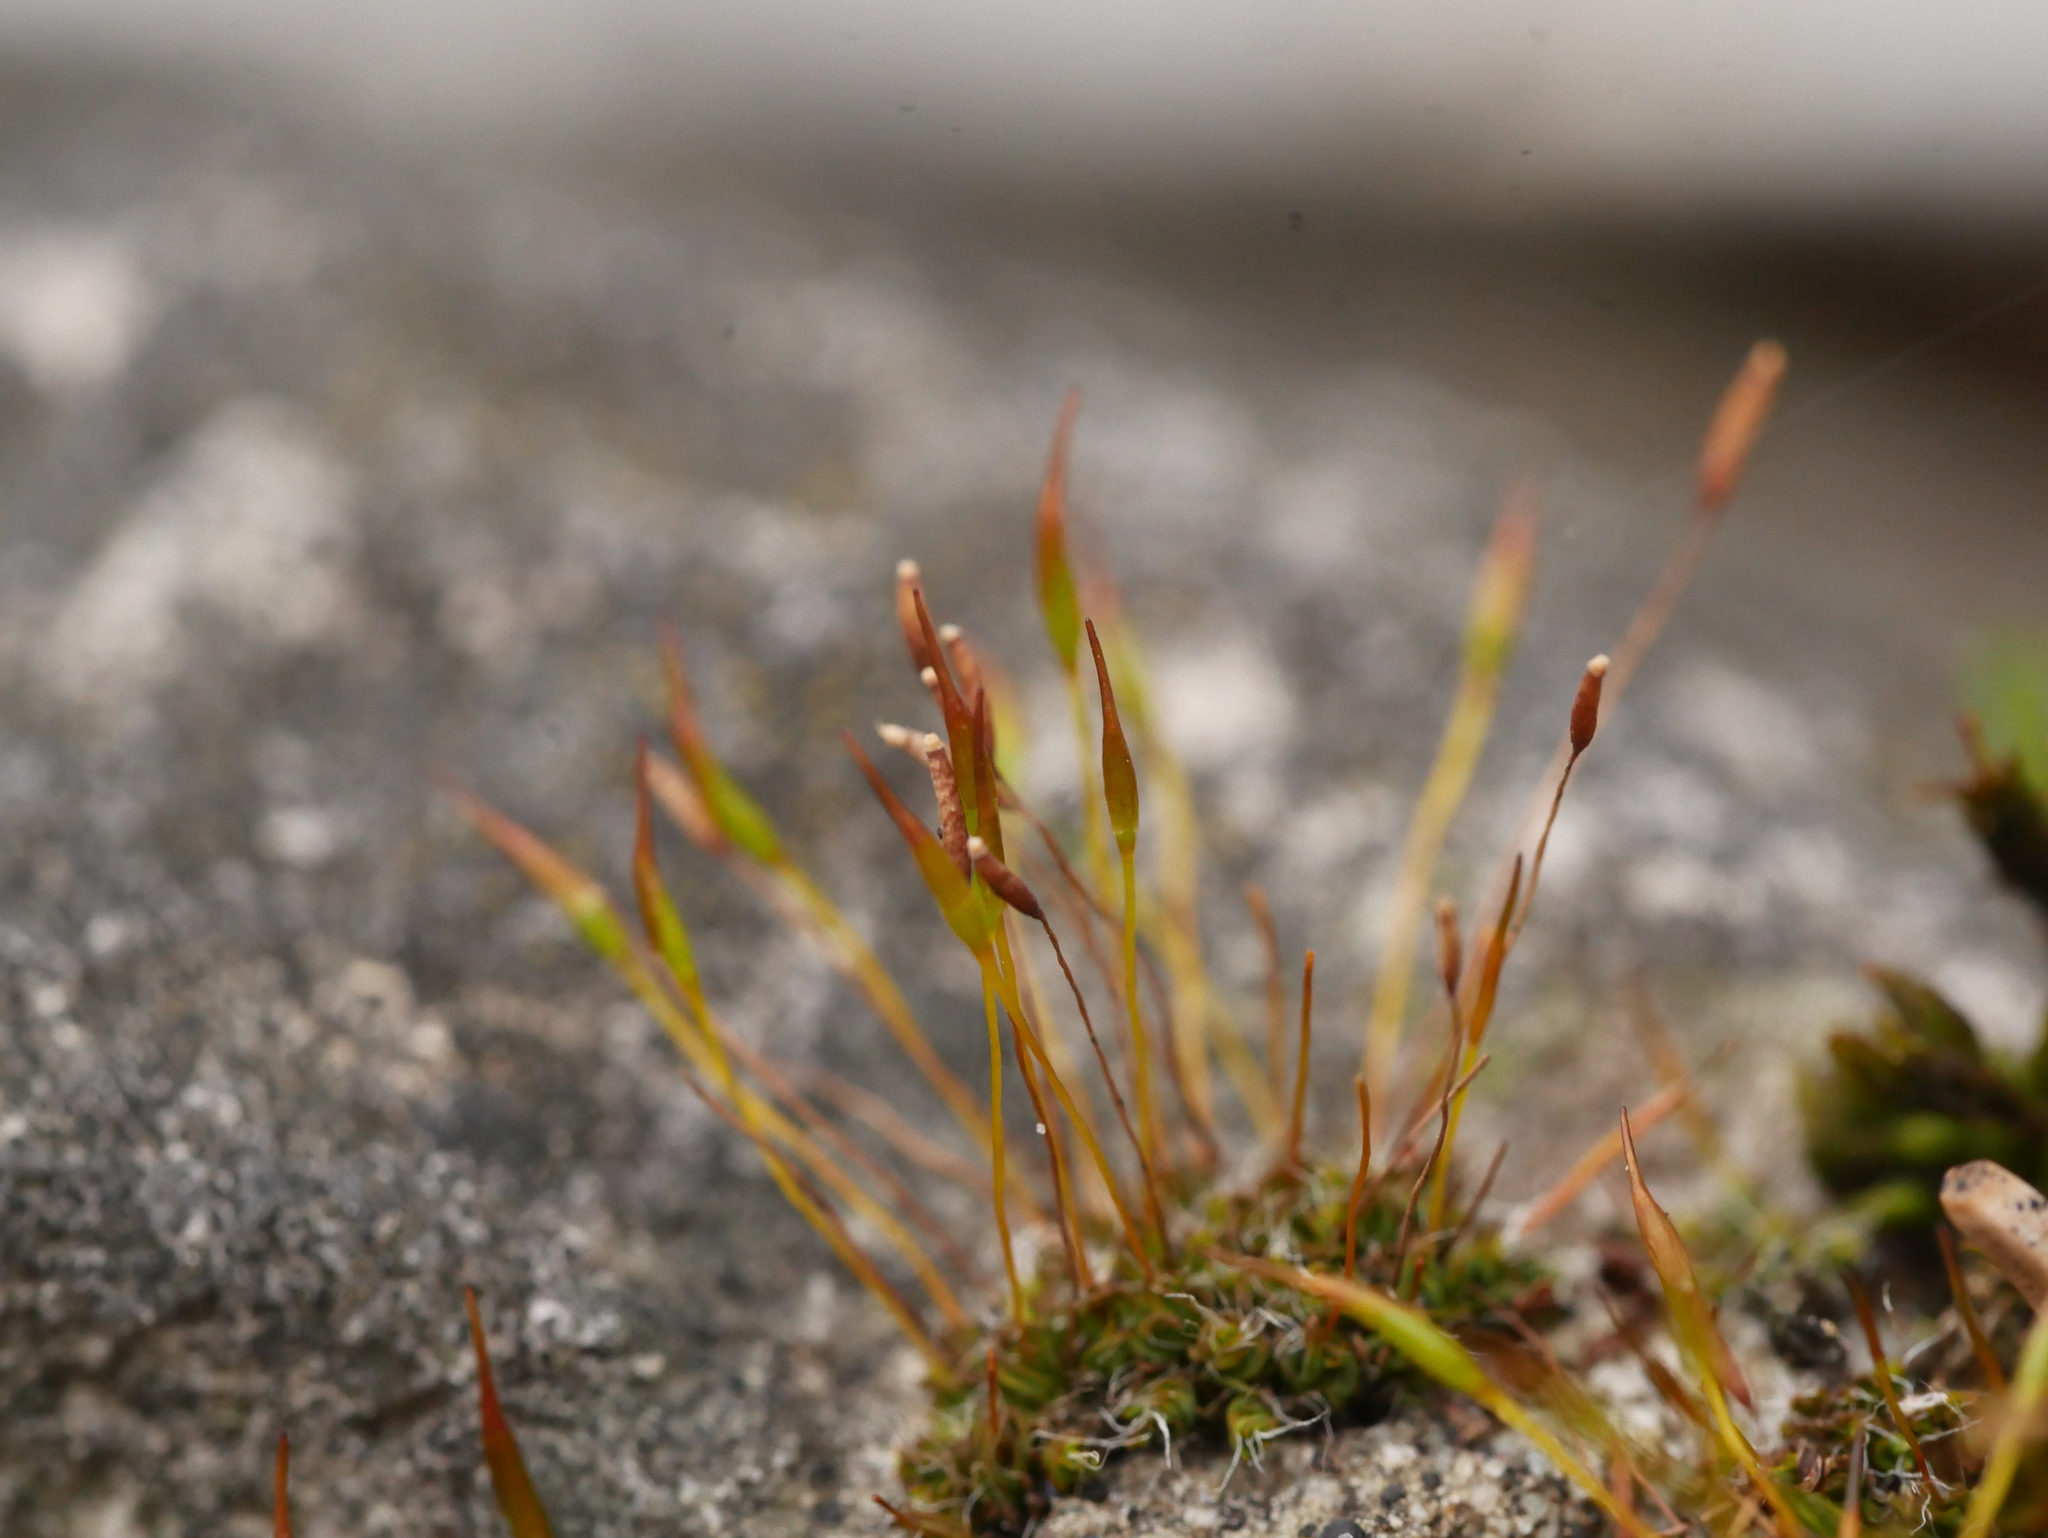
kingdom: Plantae
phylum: Bryophyta
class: Bryopsida
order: Pottiales
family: Pottiaceae
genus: Tortula
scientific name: Tortula muralis
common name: Wall screw-moss
